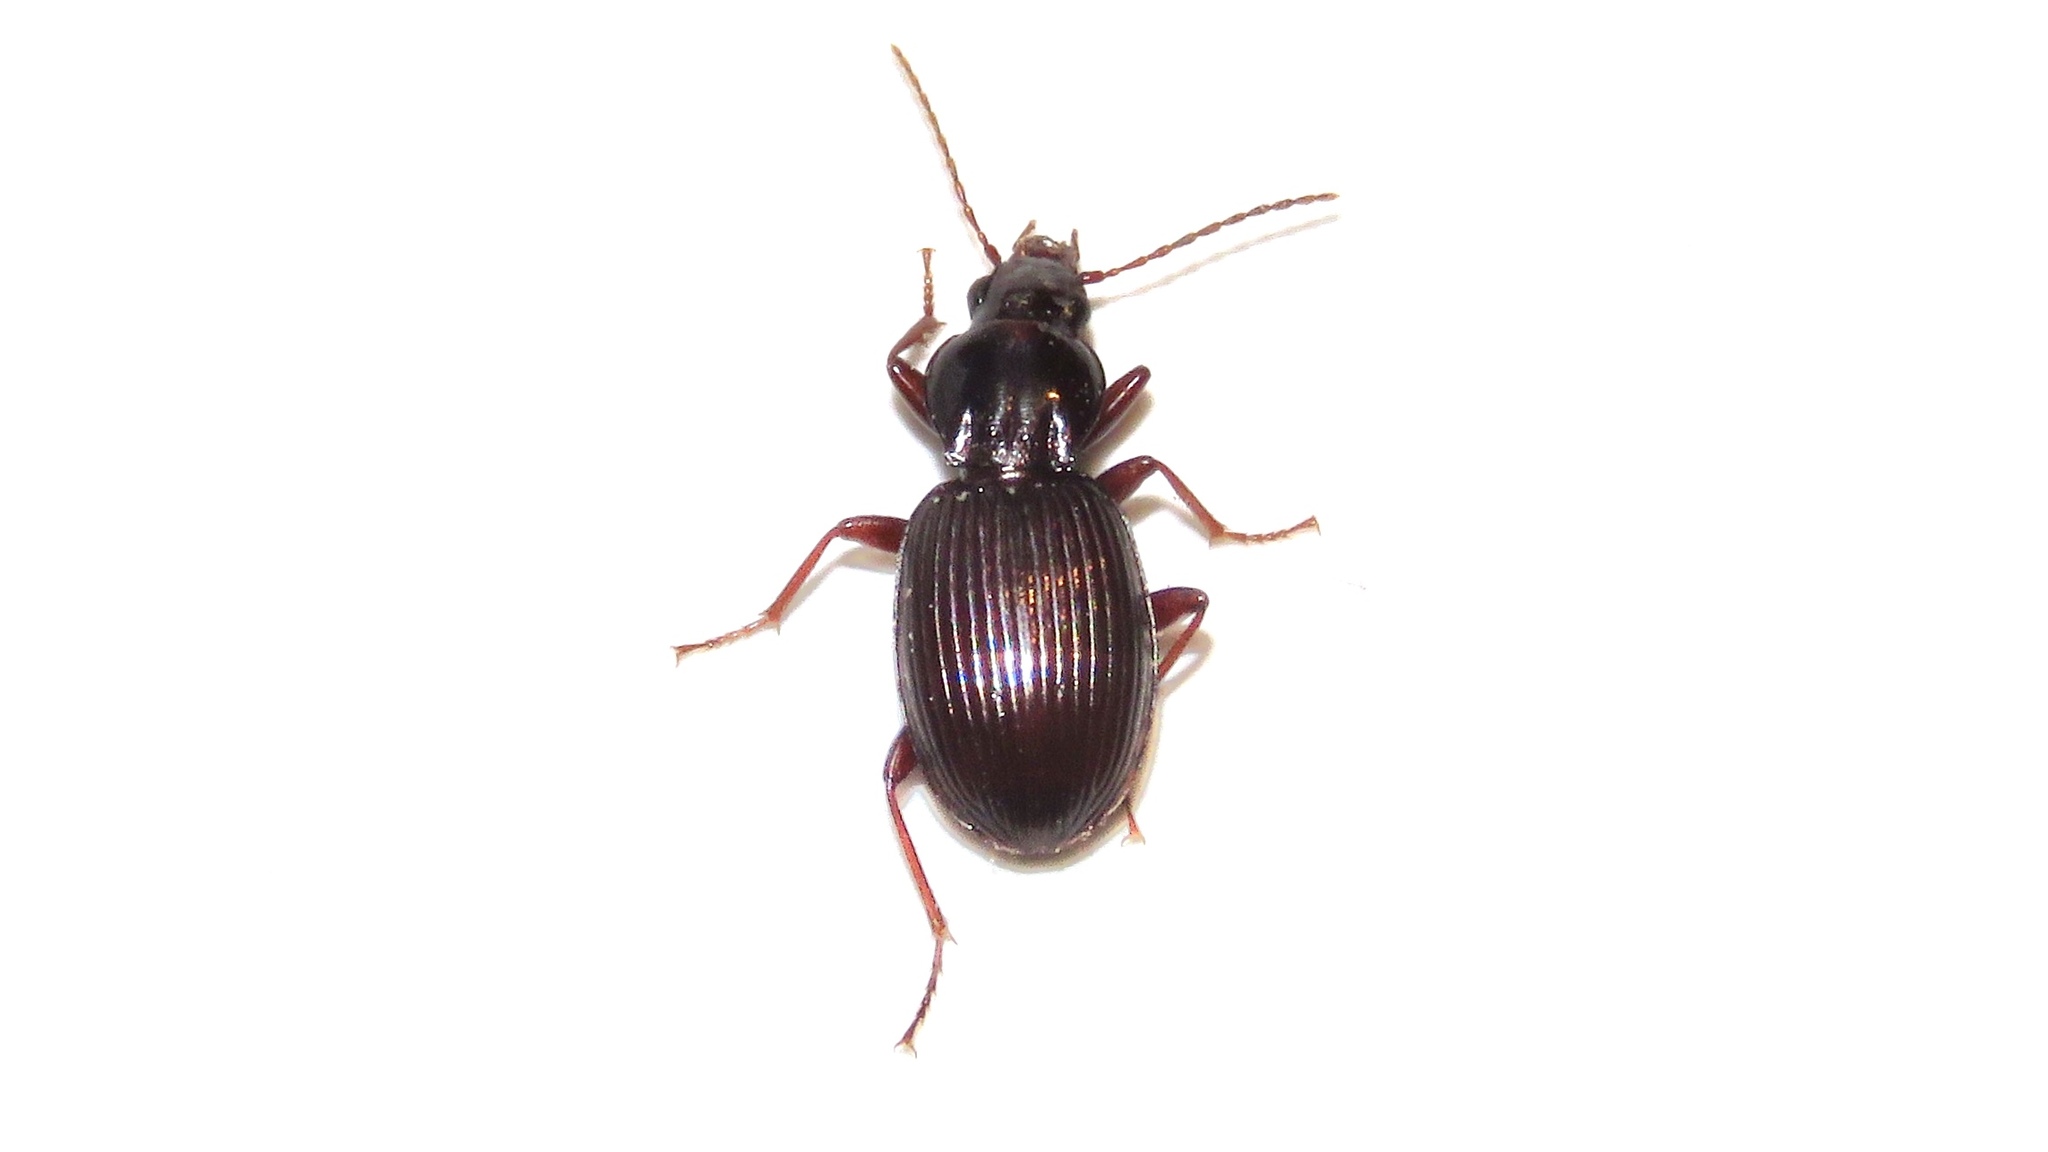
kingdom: Animalia
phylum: Arthropoda
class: Insecta
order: Coleoptera
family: Carabidae
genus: Gastrellarius
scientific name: Gastrellarius honestus
